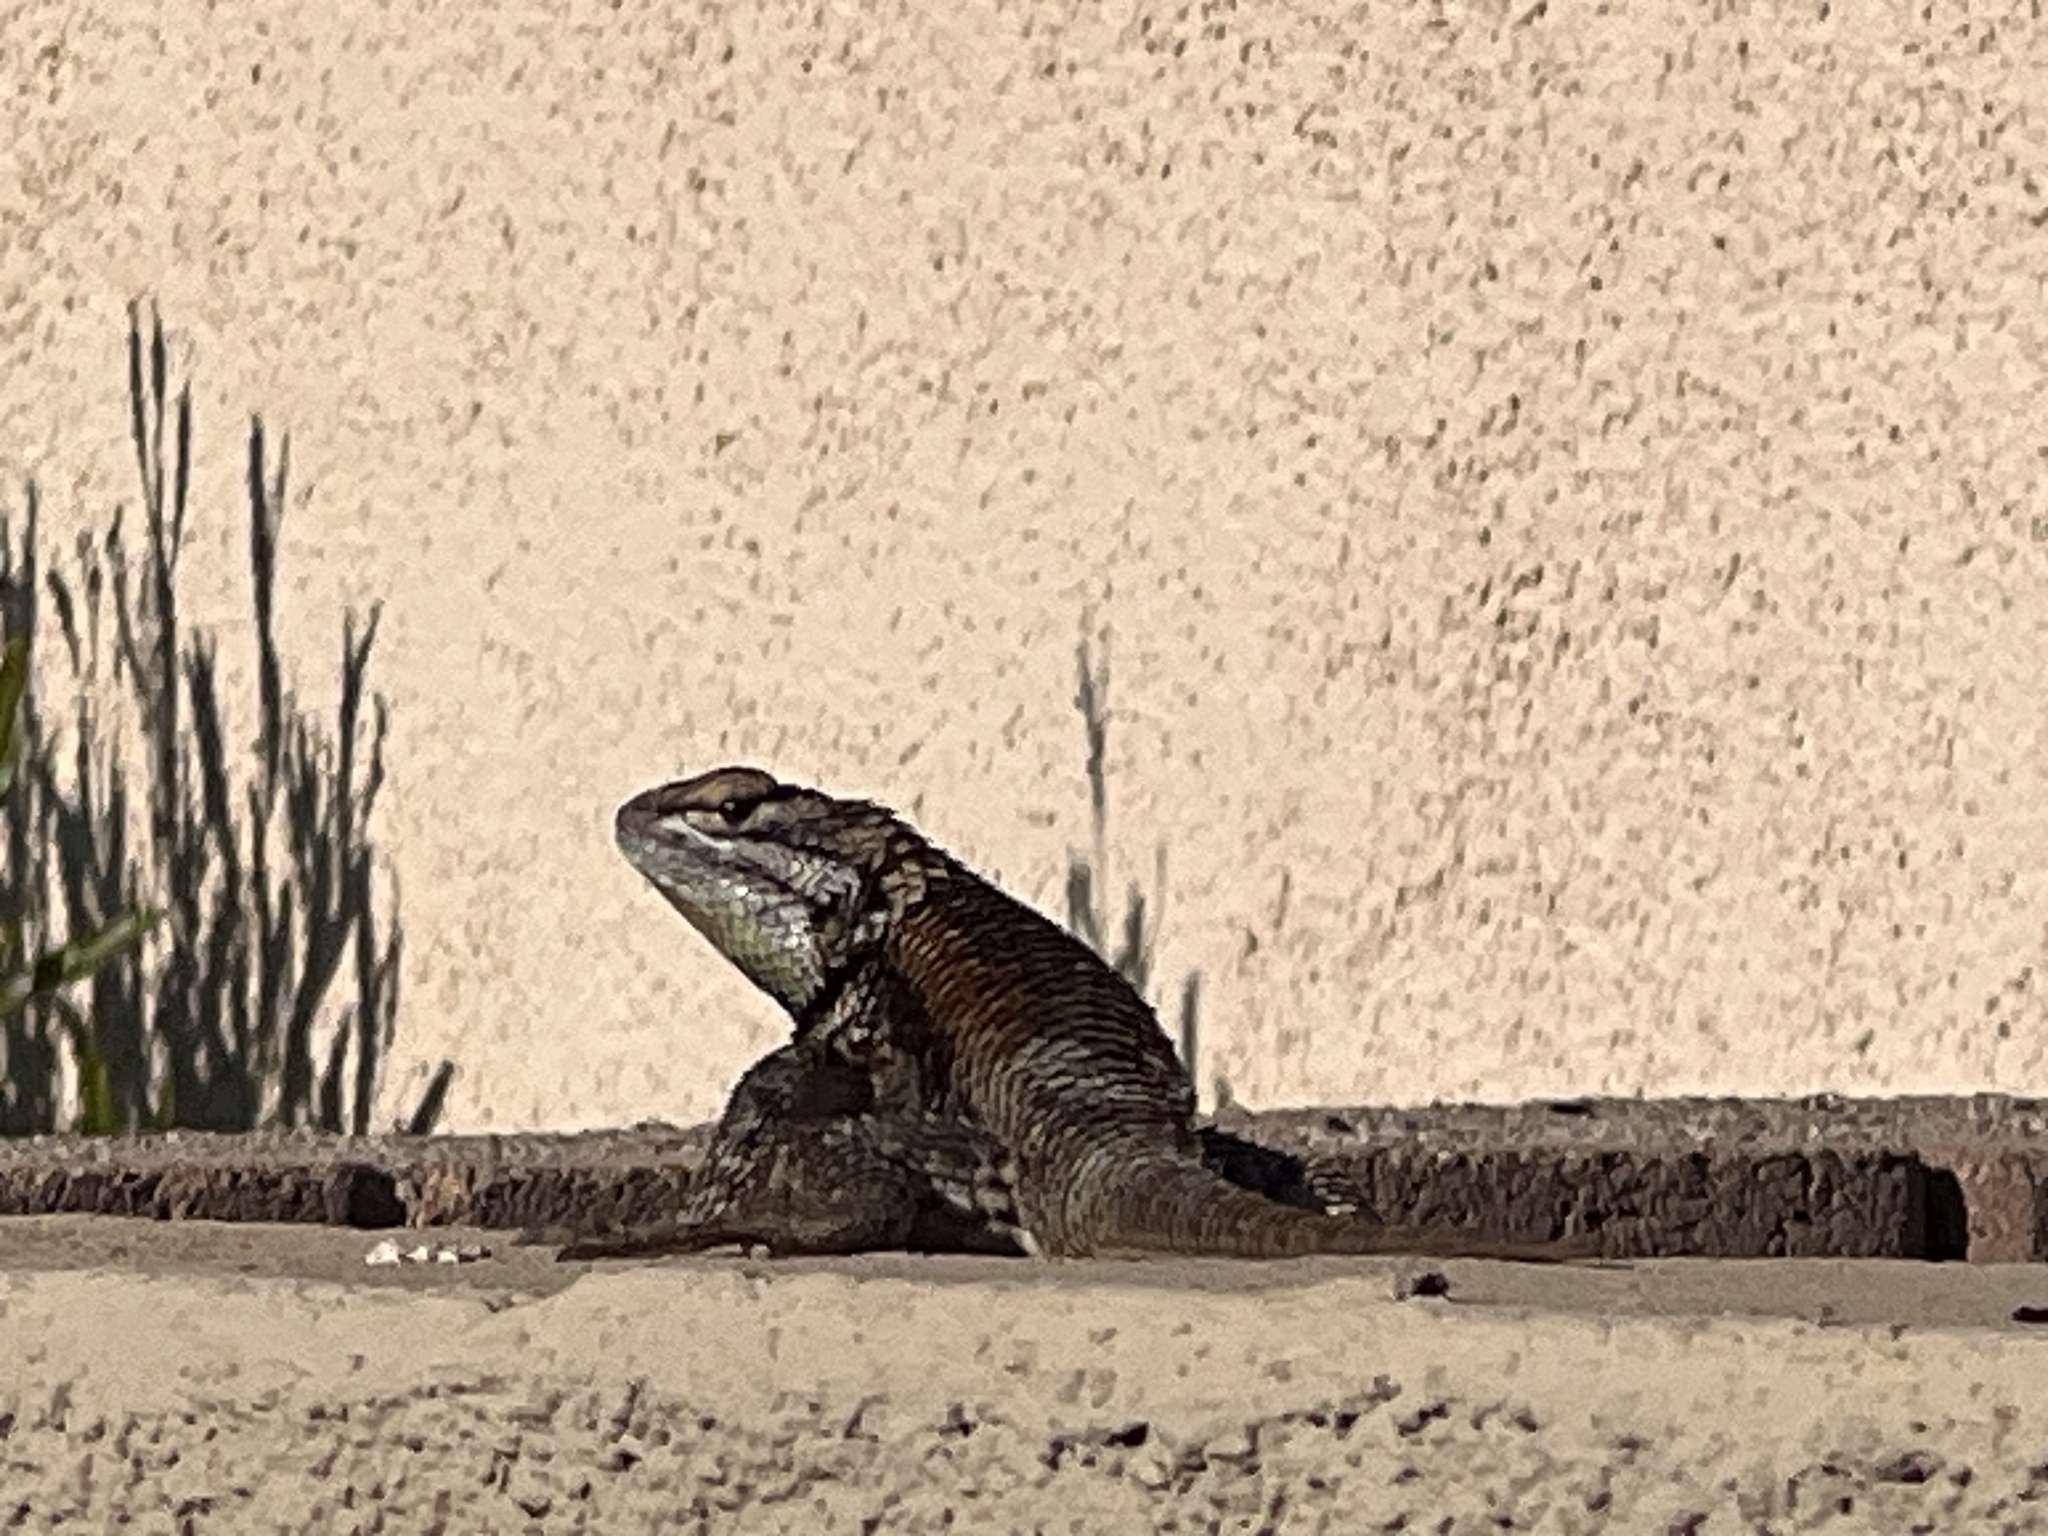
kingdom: Animalia
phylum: Chordata
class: Squamata
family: Phrynosomatidae
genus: Sceloporus
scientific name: Sceloporus magister
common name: Desert spiny lizard
